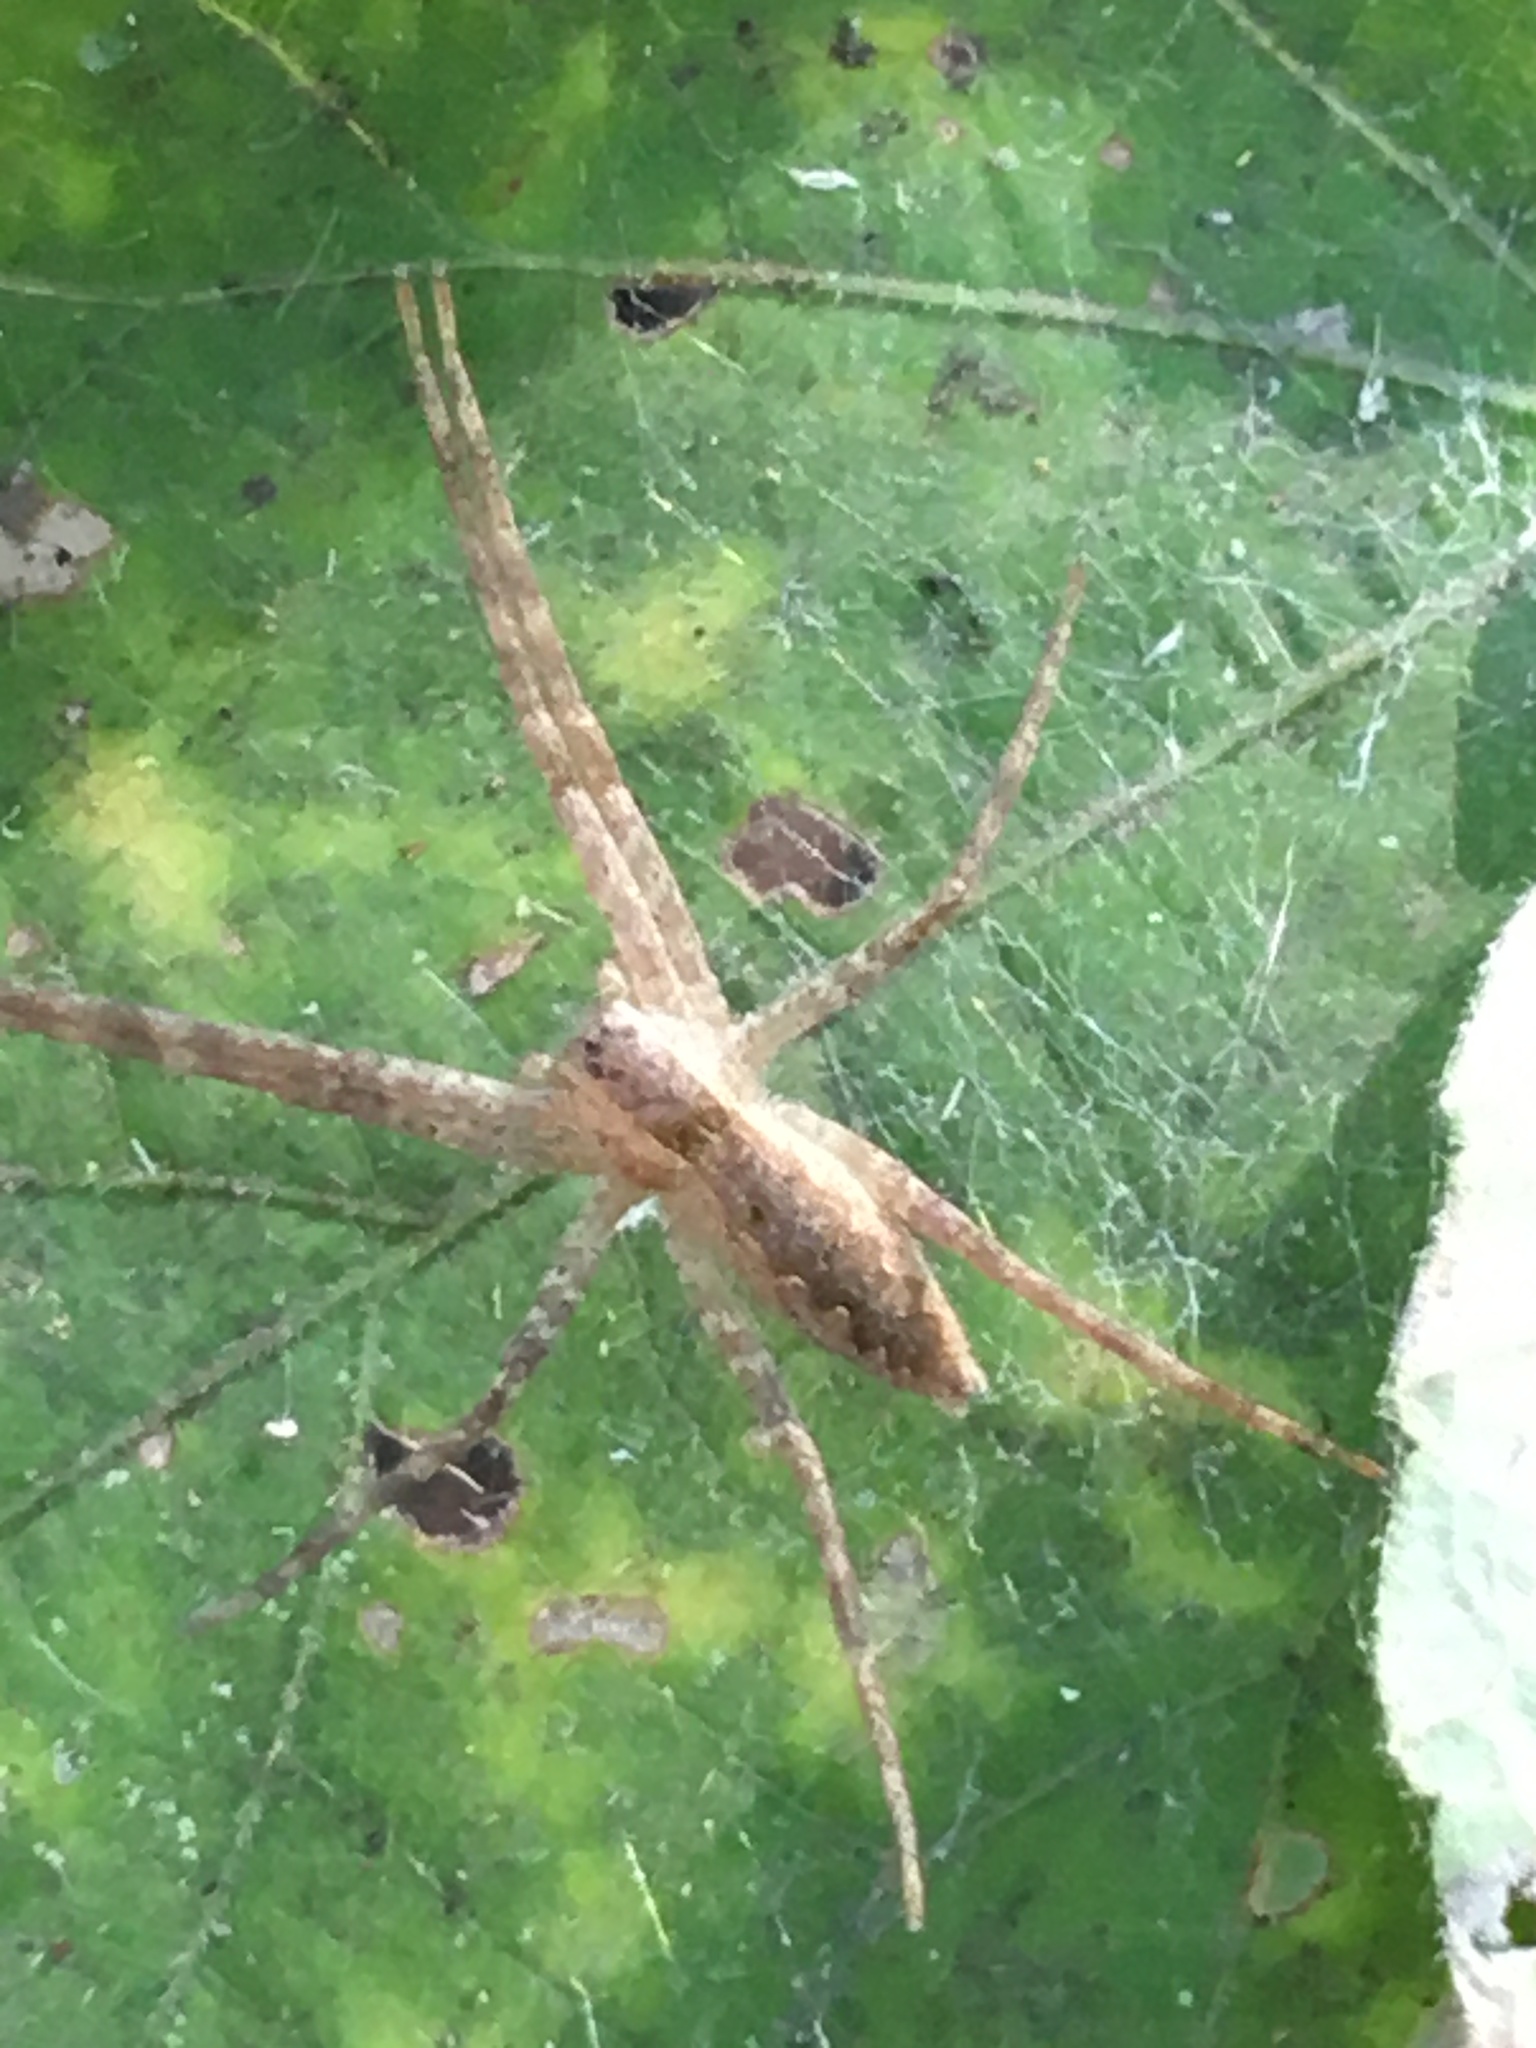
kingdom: Animalia
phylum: Arthropoda
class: Arachnida
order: Araneae
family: Pisauridae
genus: Pisaurina
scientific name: Pisaurina mira
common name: American nursery web spider
